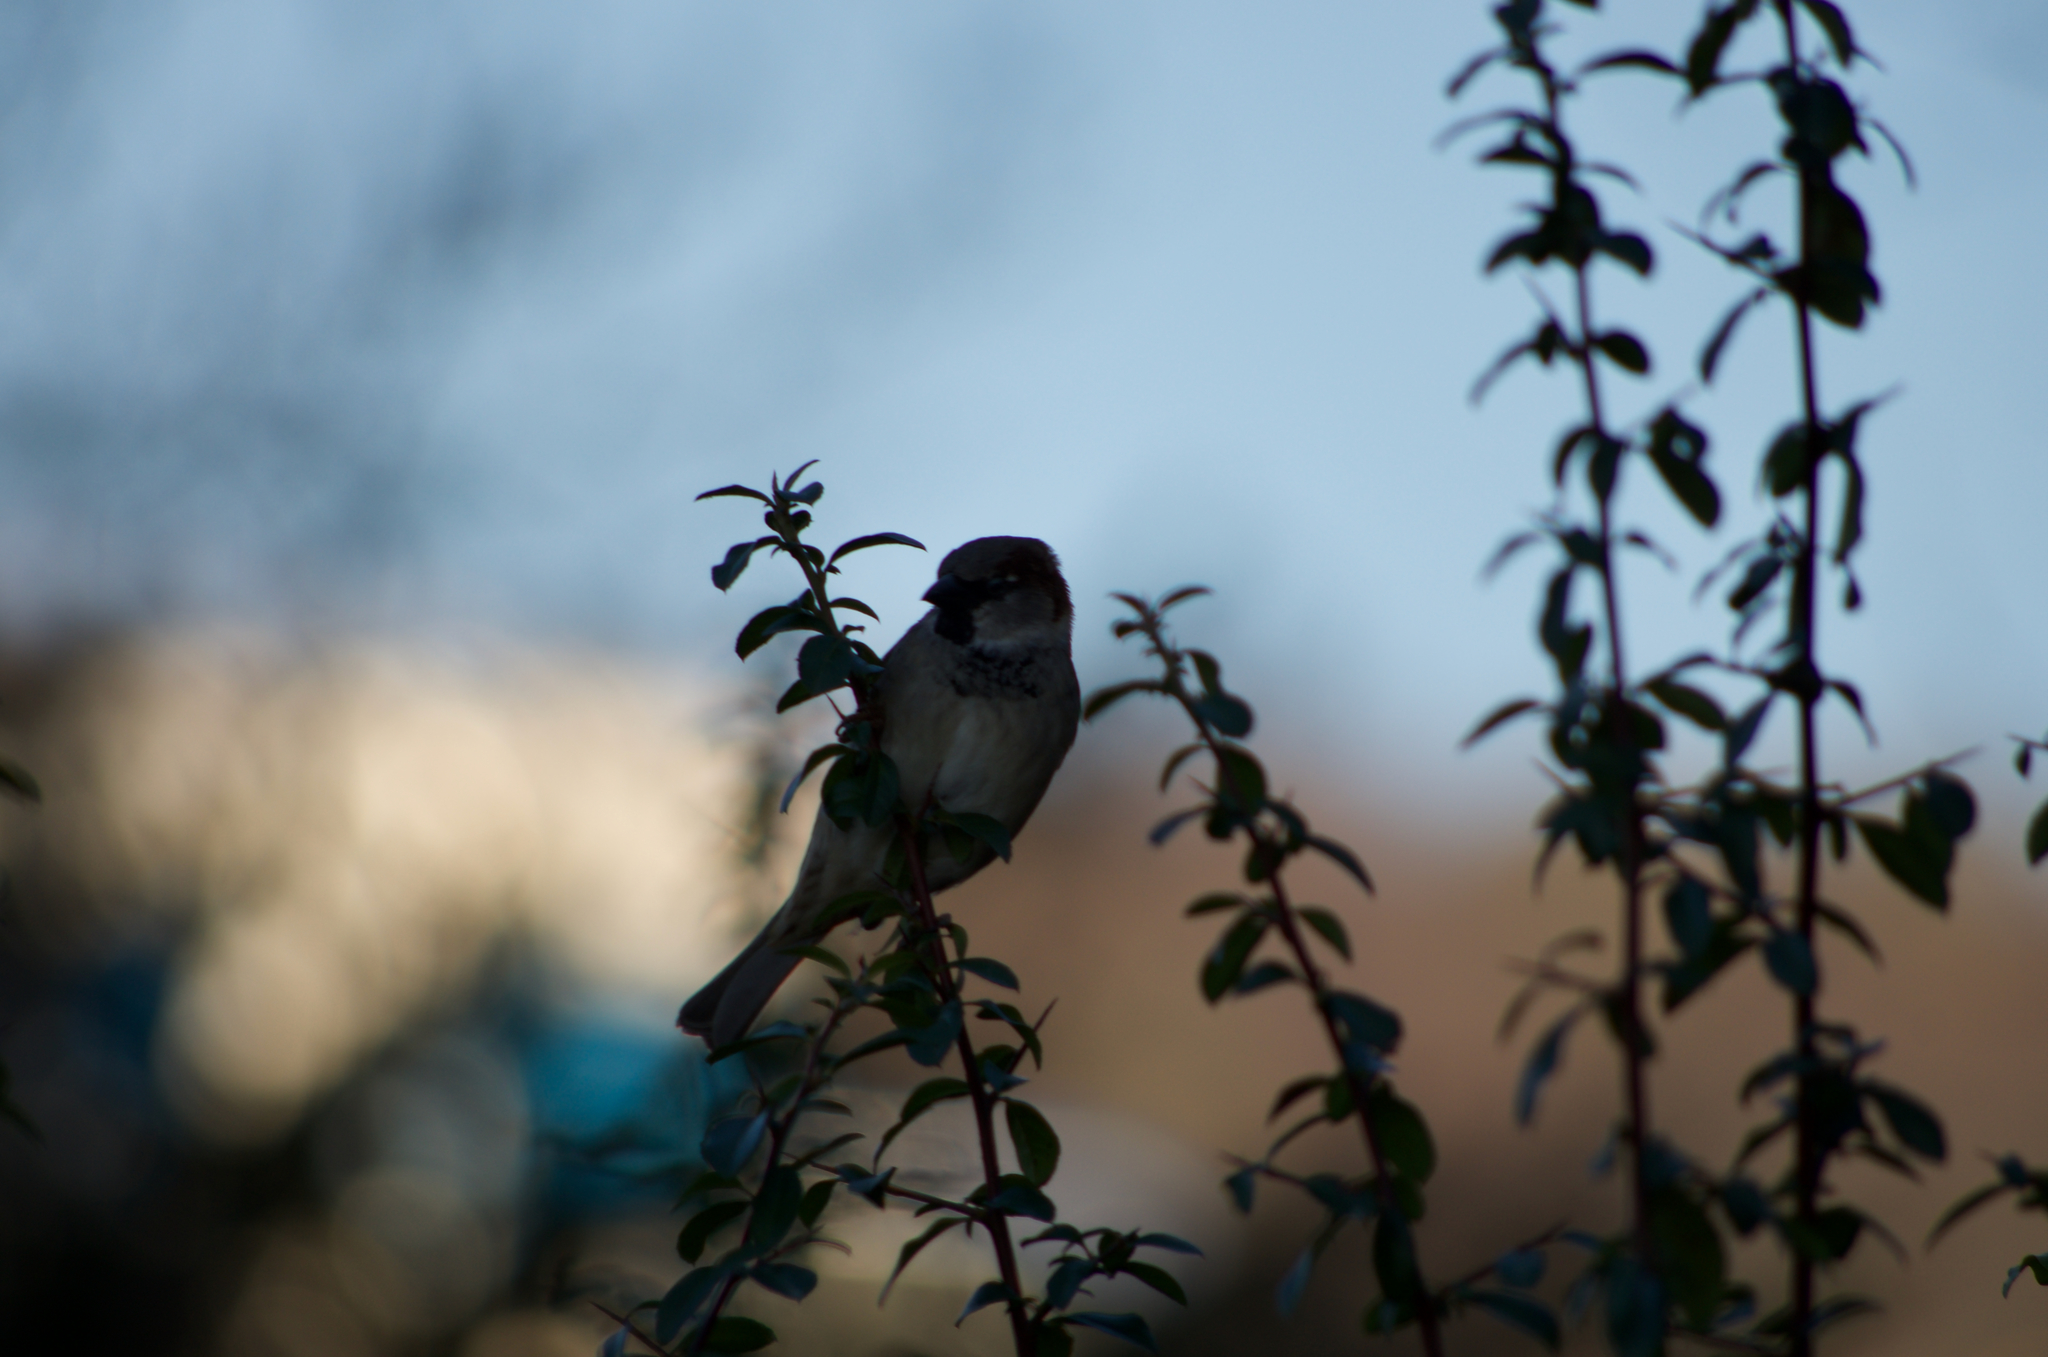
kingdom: Animalia
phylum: Chordata
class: Aves
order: Passeriformes
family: Passeridae
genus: Passer
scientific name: Passer domesticus
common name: House sparrow
